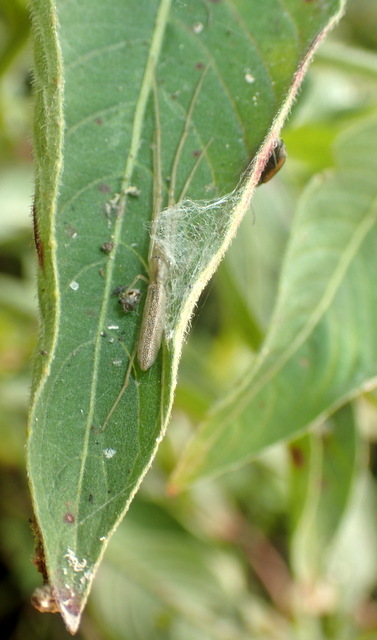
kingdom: Animalia
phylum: Arthropoda
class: Arachnida
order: Araneae
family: Tetragnathidae
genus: Tetragnatha
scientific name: Tetragnatha
